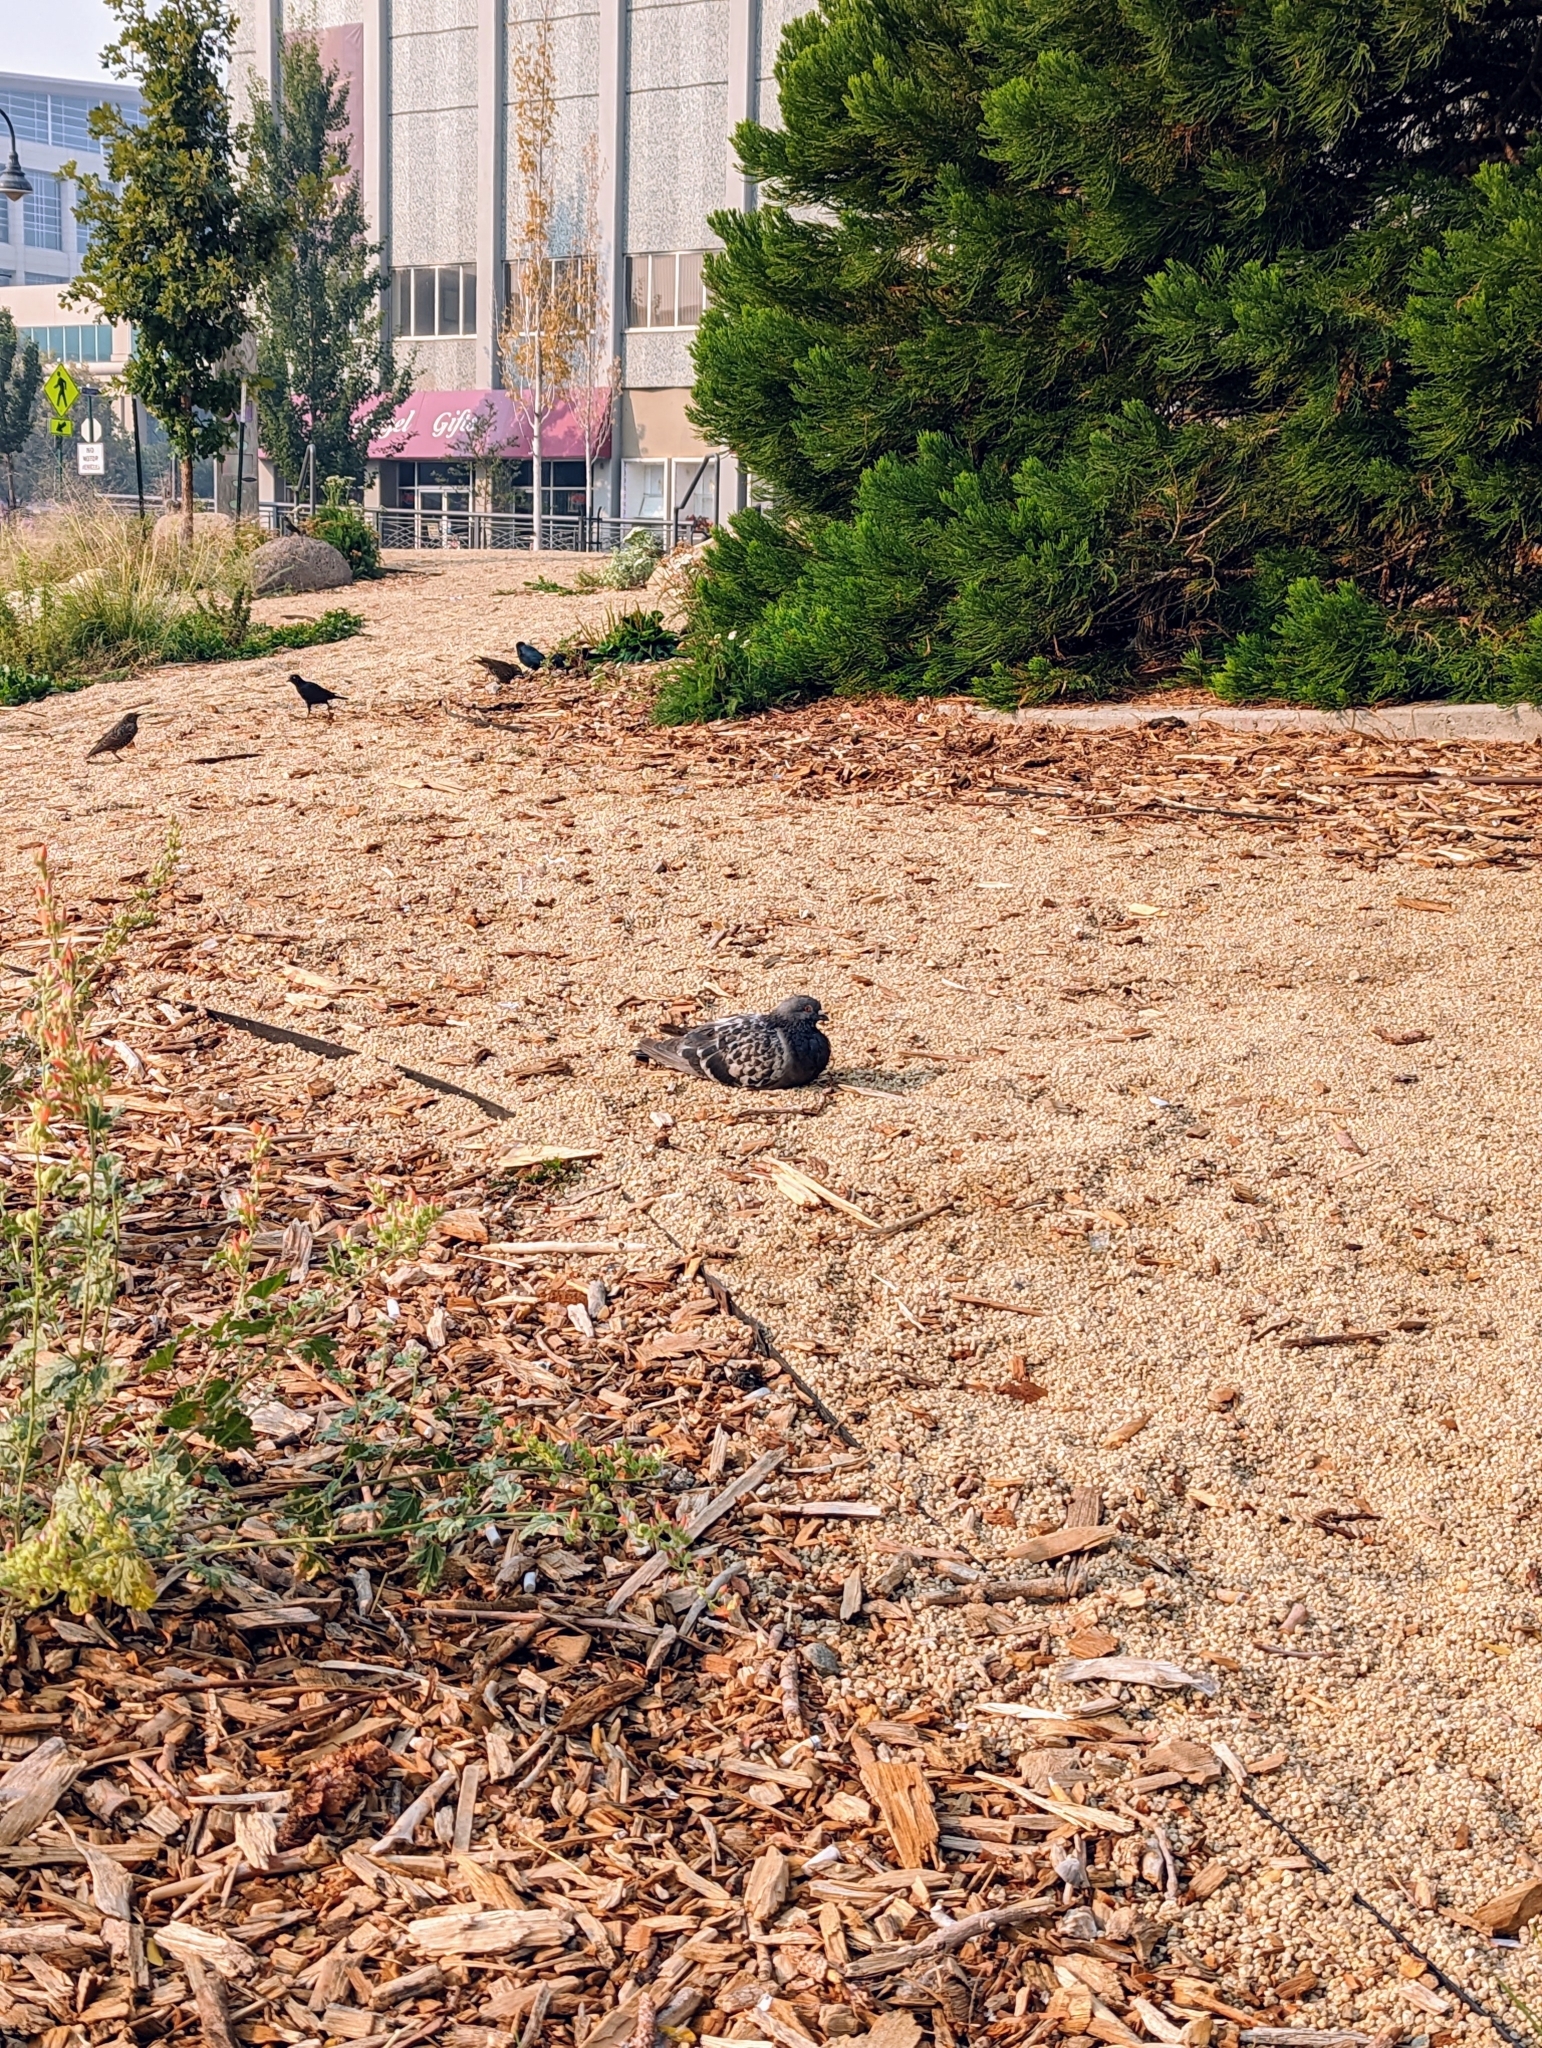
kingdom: Animalia
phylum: Chordata
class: Aves
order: Columbiformes
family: Columbidae
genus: Columba
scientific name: Columba livia
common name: Rock pigeon
